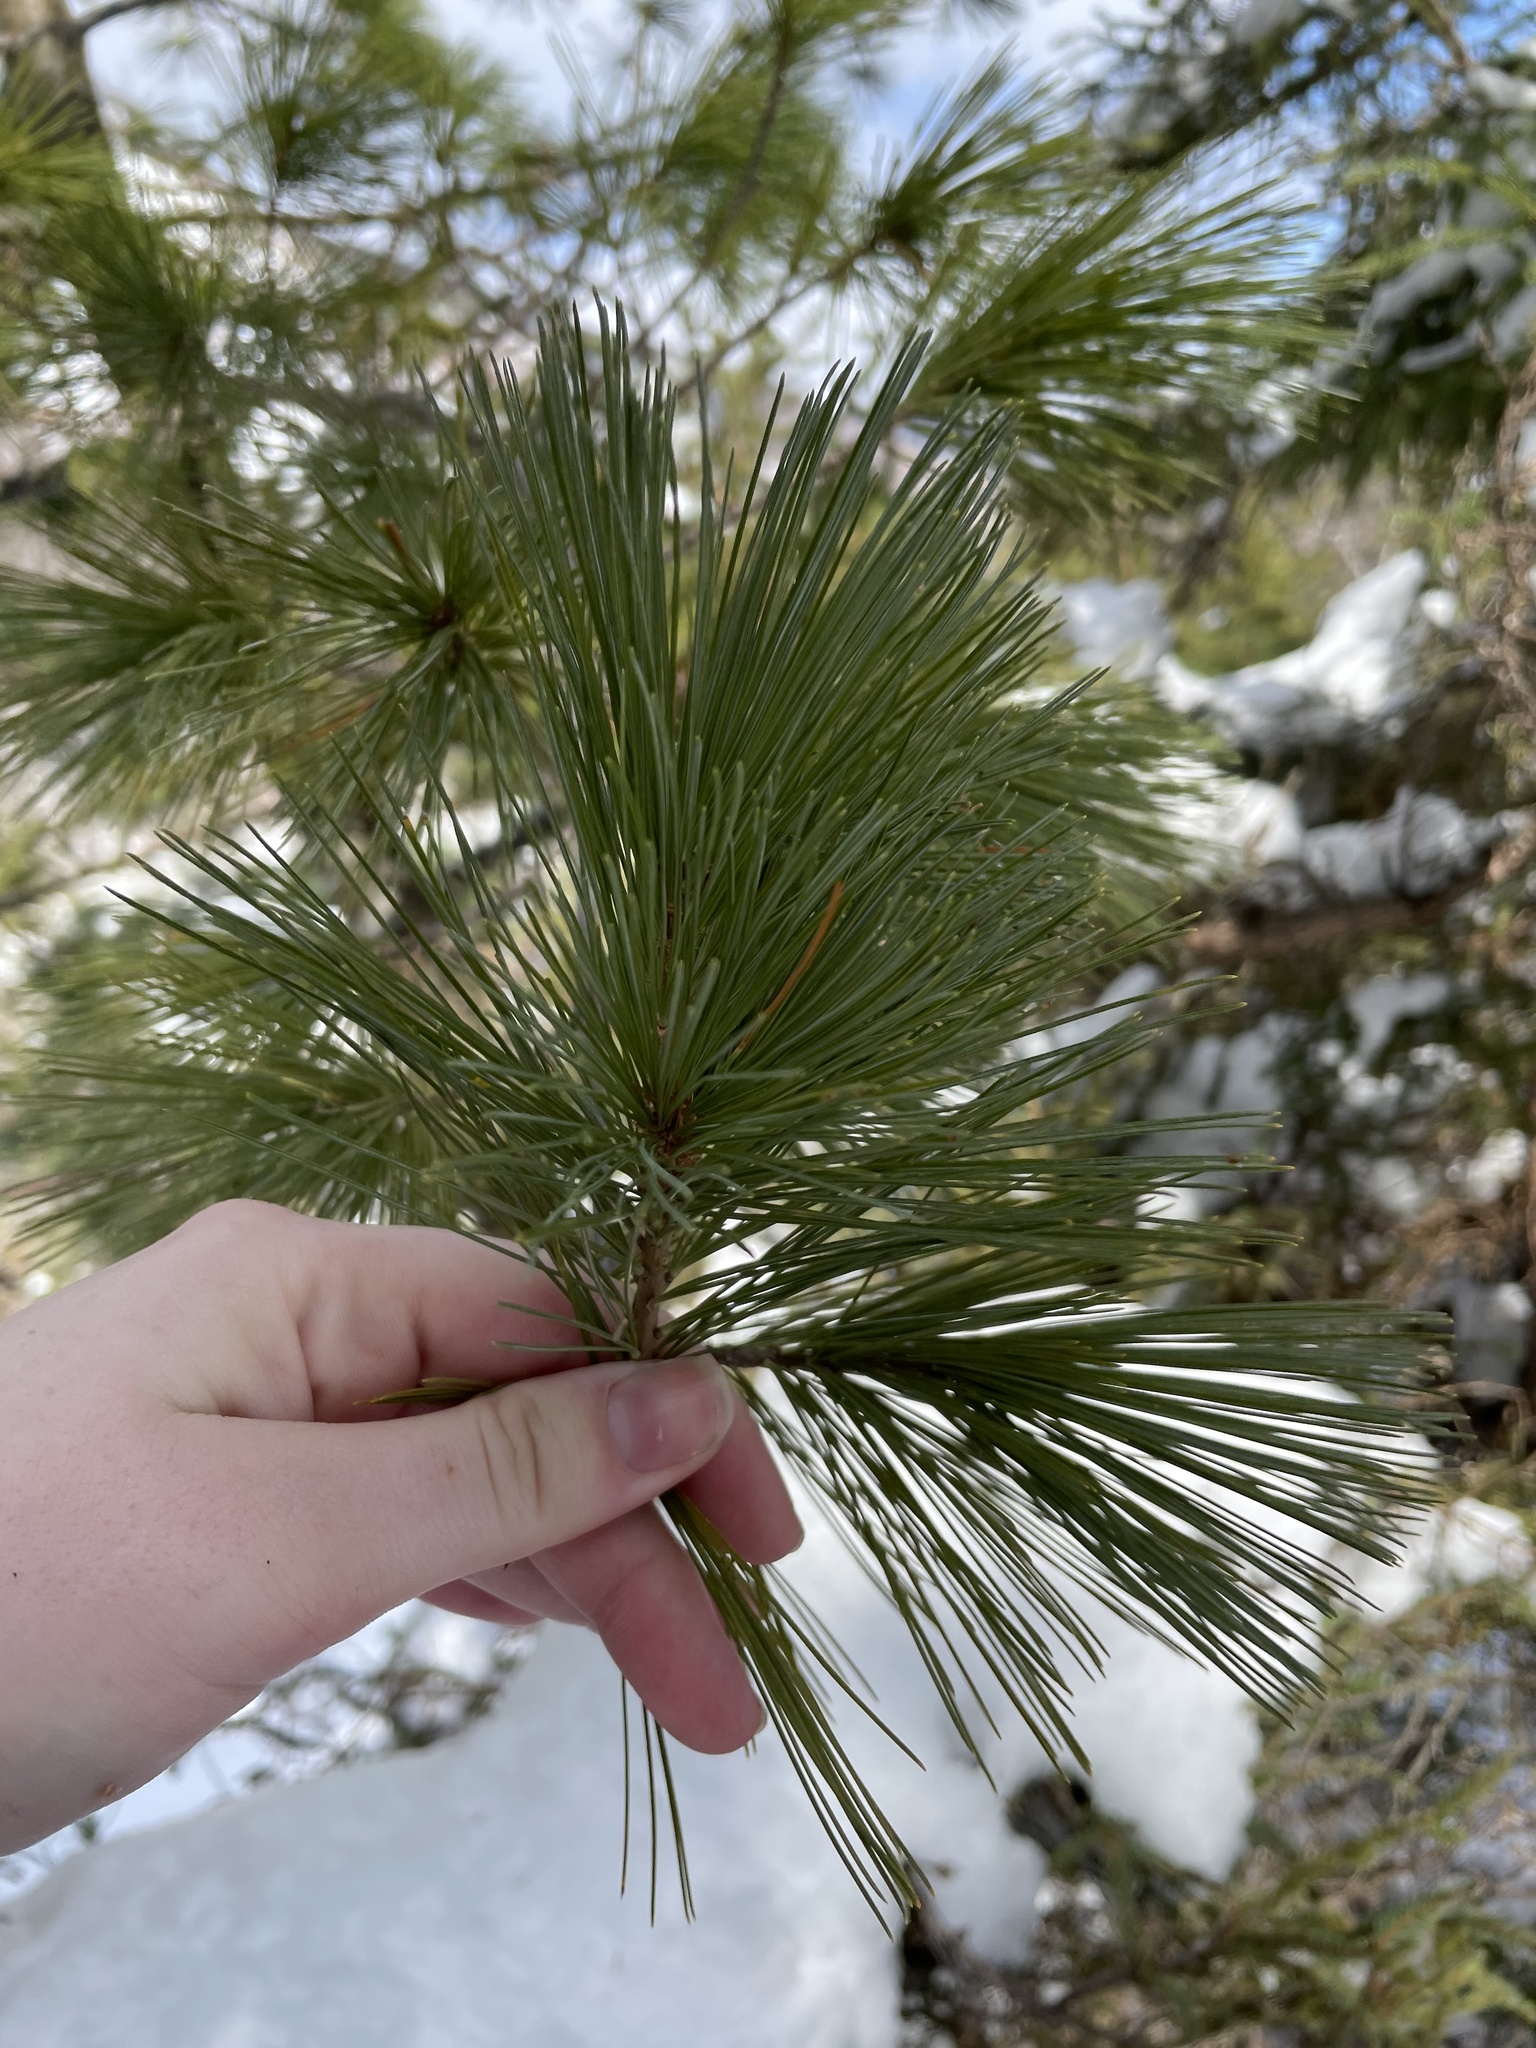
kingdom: Plantae
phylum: Tracheophyta
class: Pinopsida
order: Pinales
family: Pinaceae
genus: Pinus
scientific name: Pinus strobus
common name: Weymouth pine
